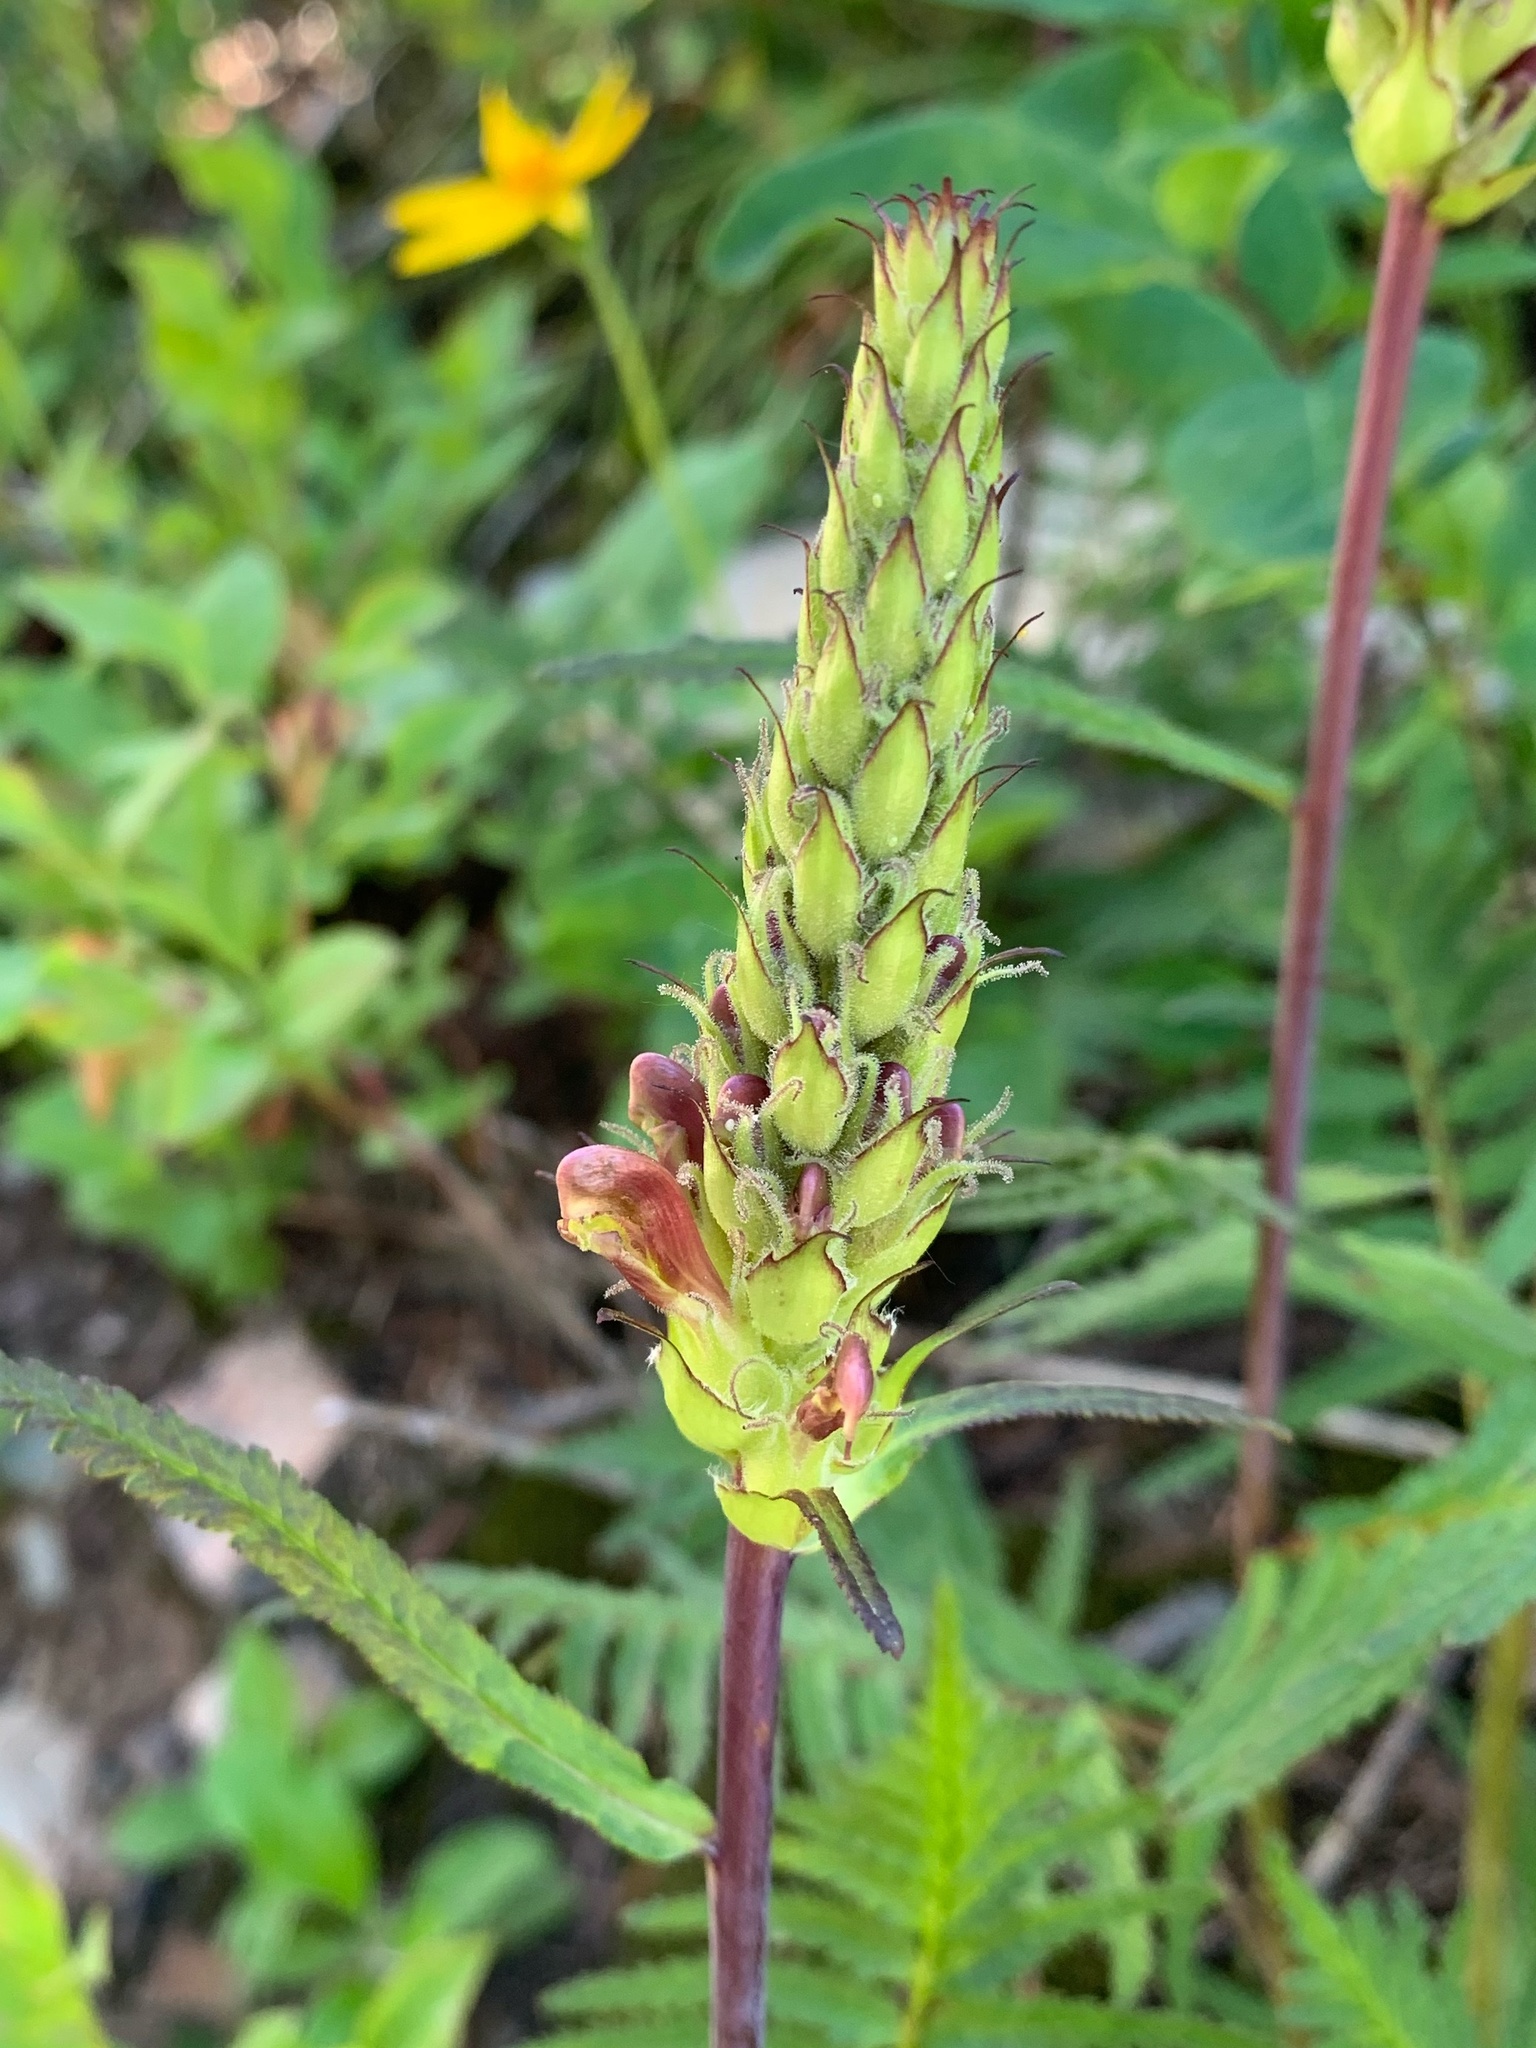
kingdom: Plantae
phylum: Tracheophyta
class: Magnoliopsida
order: Lamiales
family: Orobanchaceae
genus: Pedicularis
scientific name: Pedicularis bracteosa
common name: Bracted lousewort
